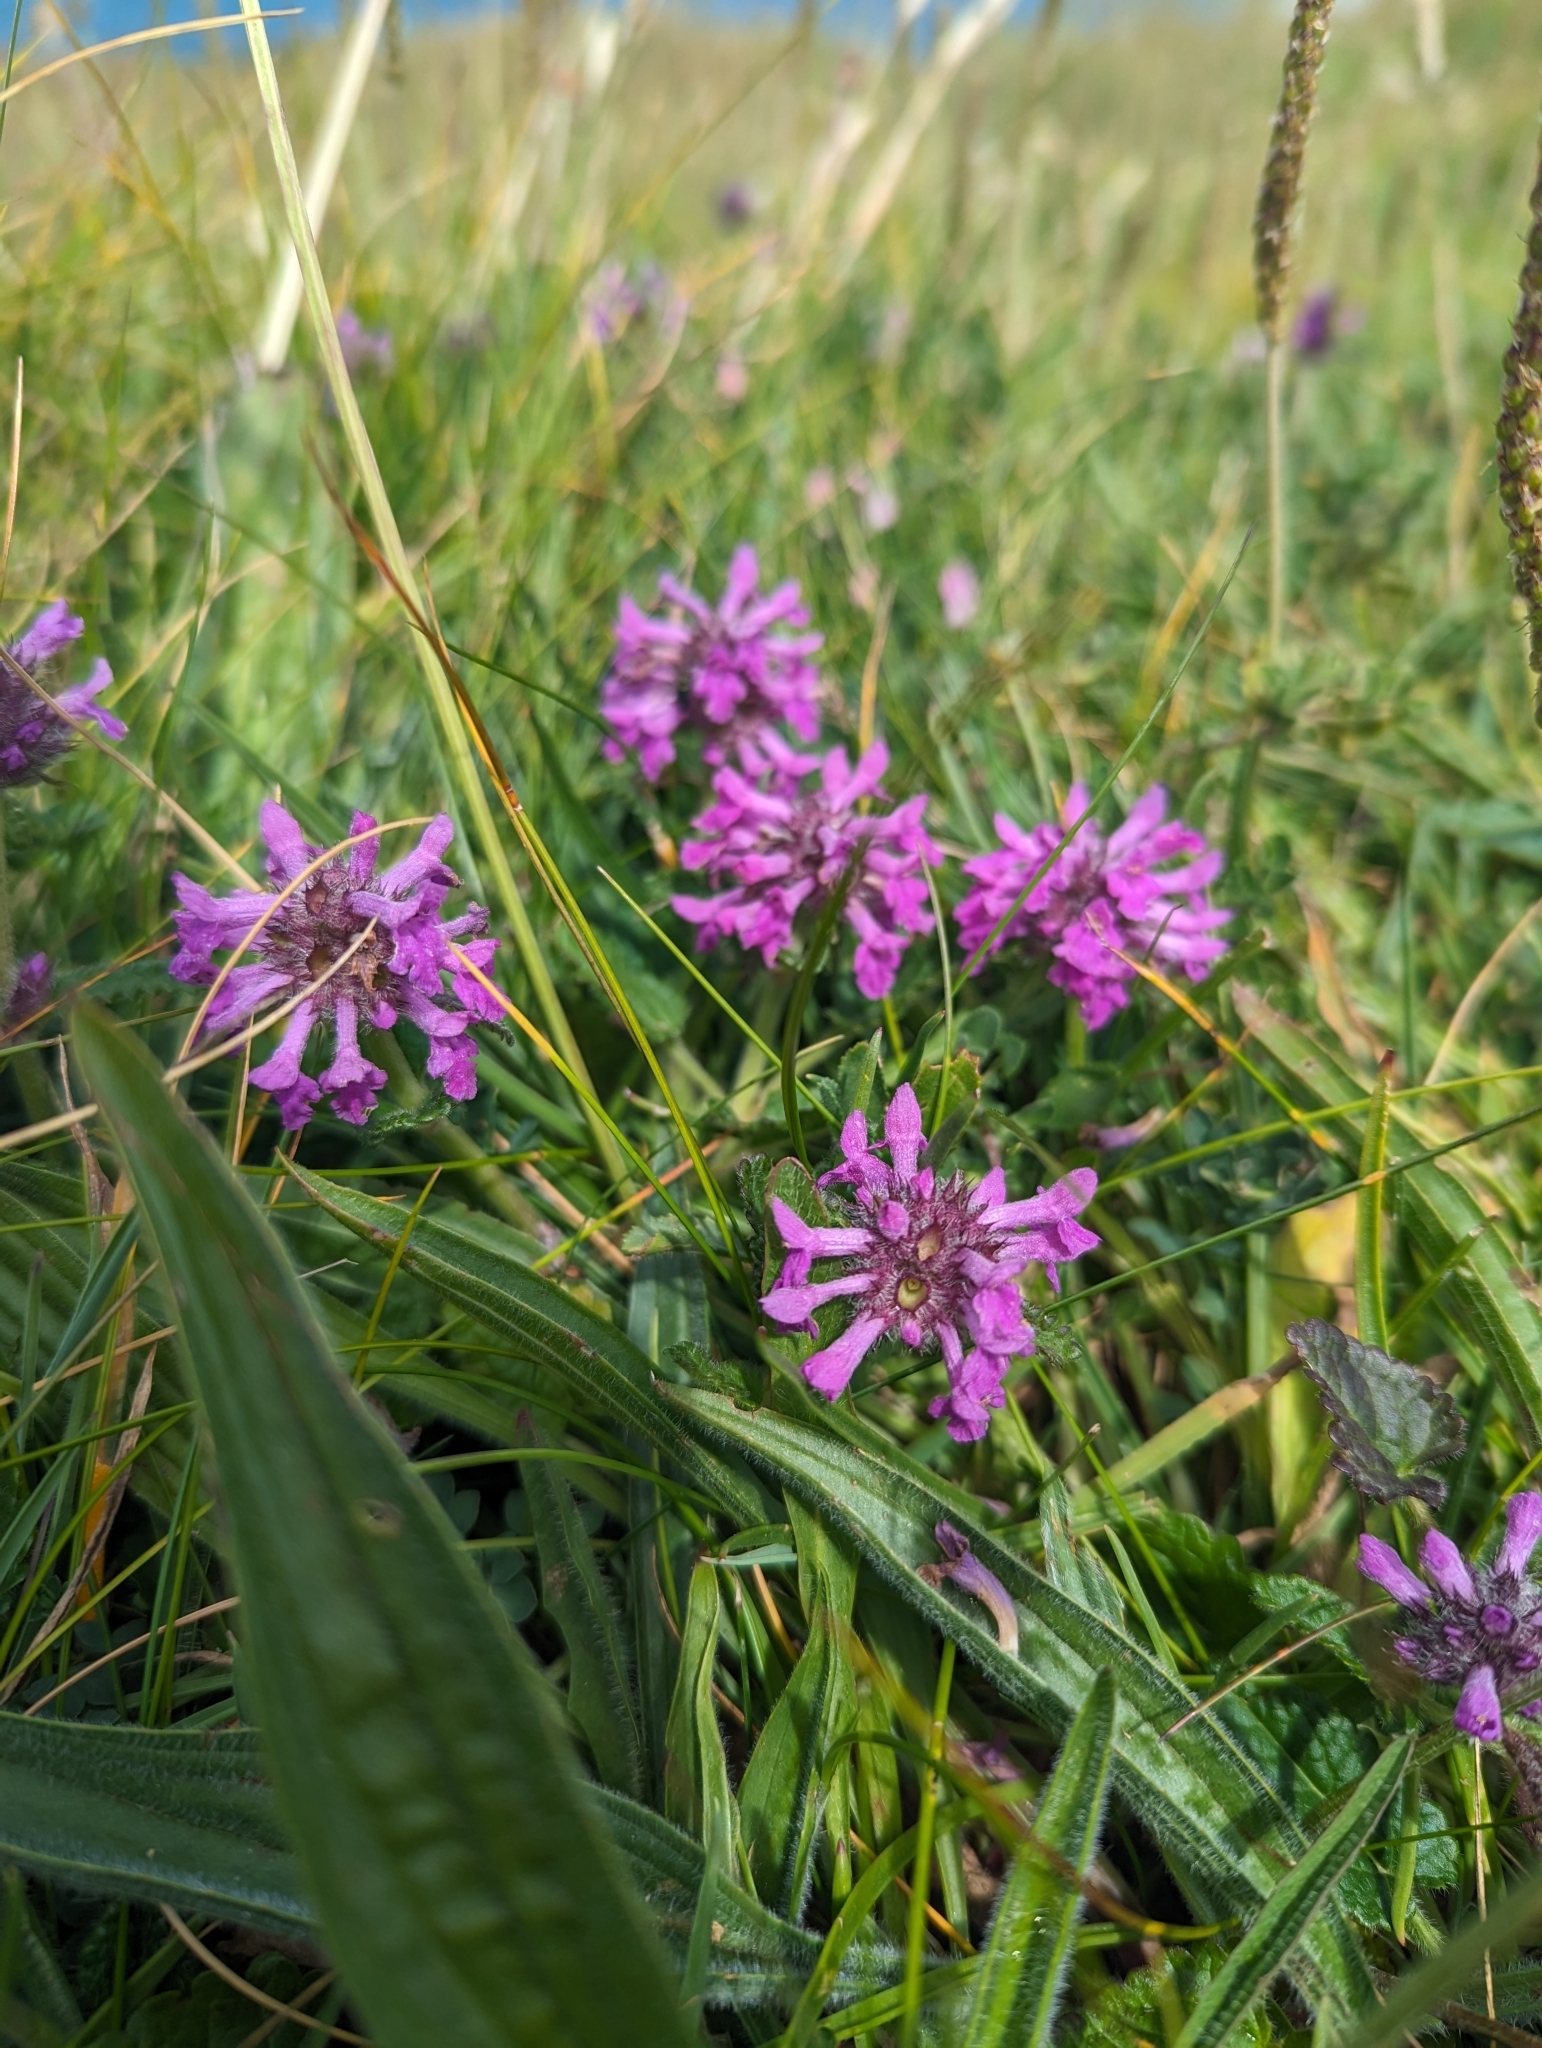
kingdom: Plantae
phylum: Tracheophyta
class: Magnoliopsida
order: Lamiales
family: Lamiaceae
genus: Betonica
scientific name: Betonica officinalis
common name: Bishop's-wort
